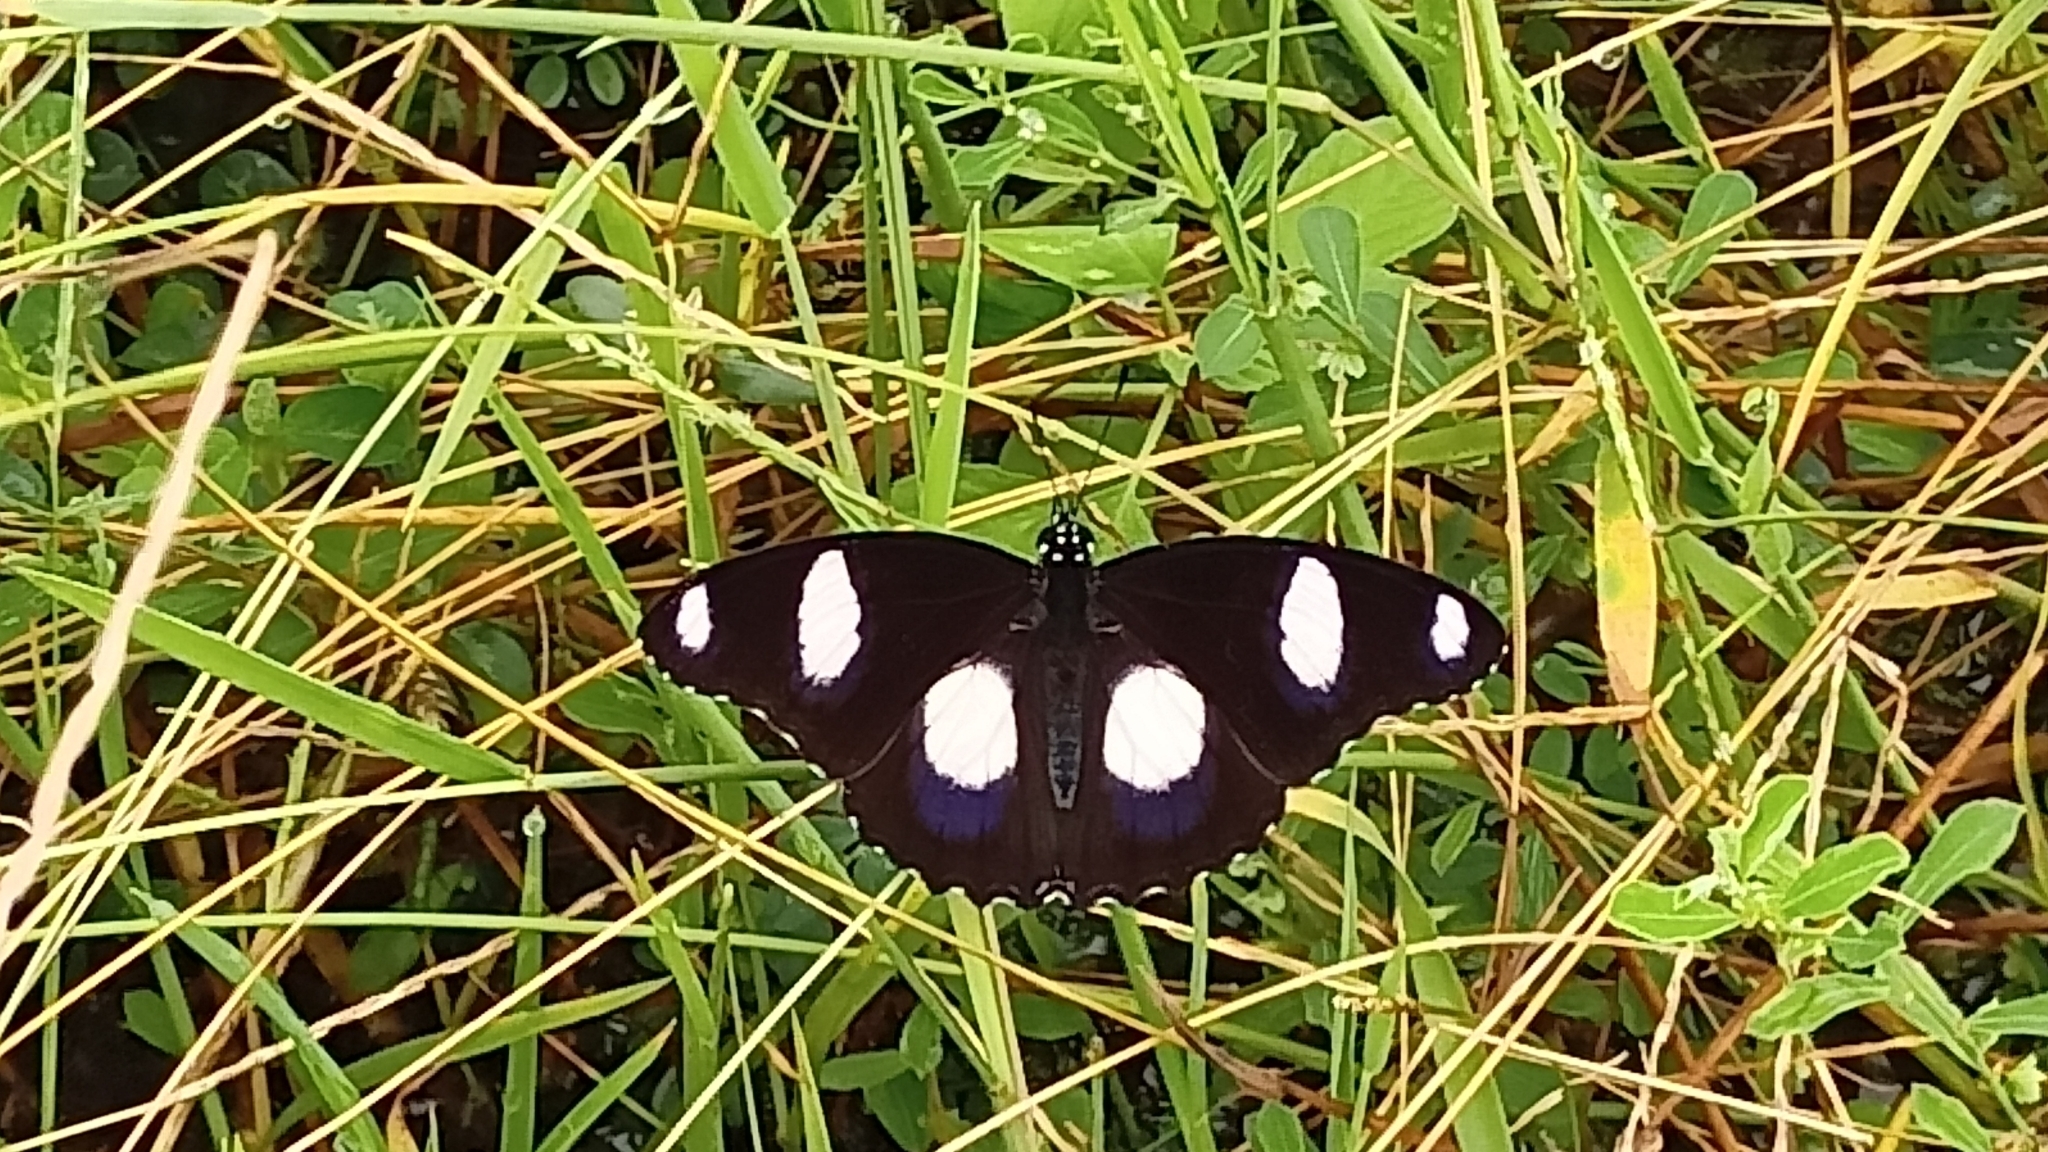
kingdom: Animalia
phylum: Arthropoda
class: Insecta
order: Lepidoptera
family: Nymphalidae
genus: Hypolimnas
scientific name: Hypolimnas misippus
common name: False plain tiger
